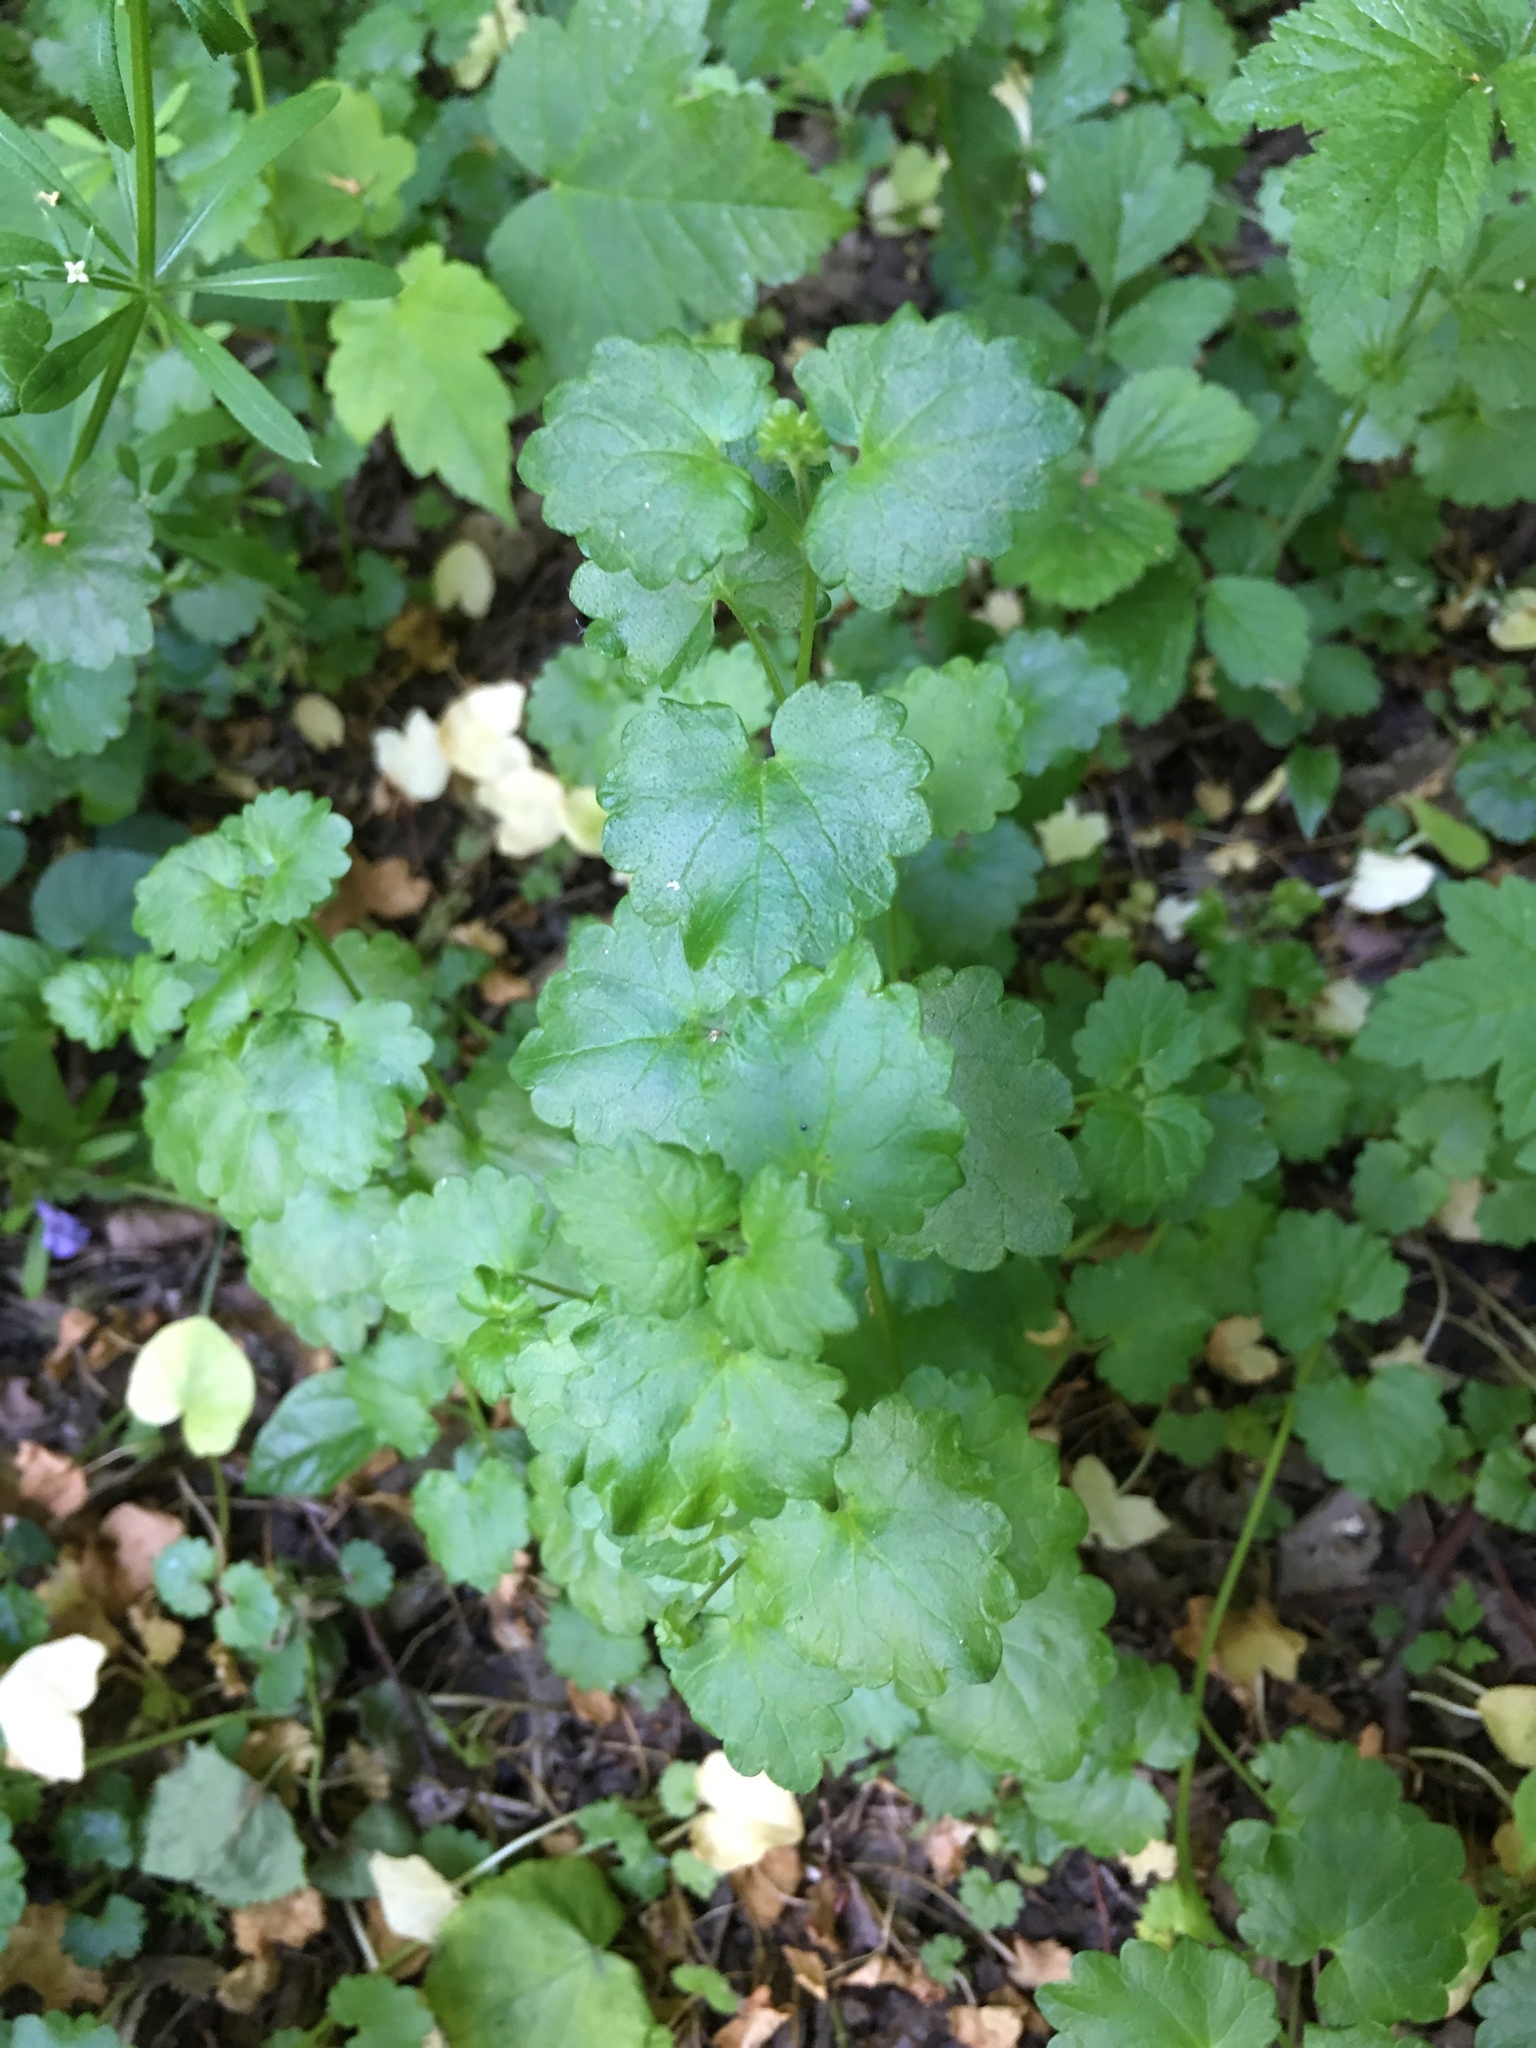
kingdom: Plantae
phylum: Tracheophyta
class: Magnoliopsida
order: Lamiales
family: Lamiaceae
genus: Glechoma
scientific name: Glechoma hederacea
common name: Ground ivy
